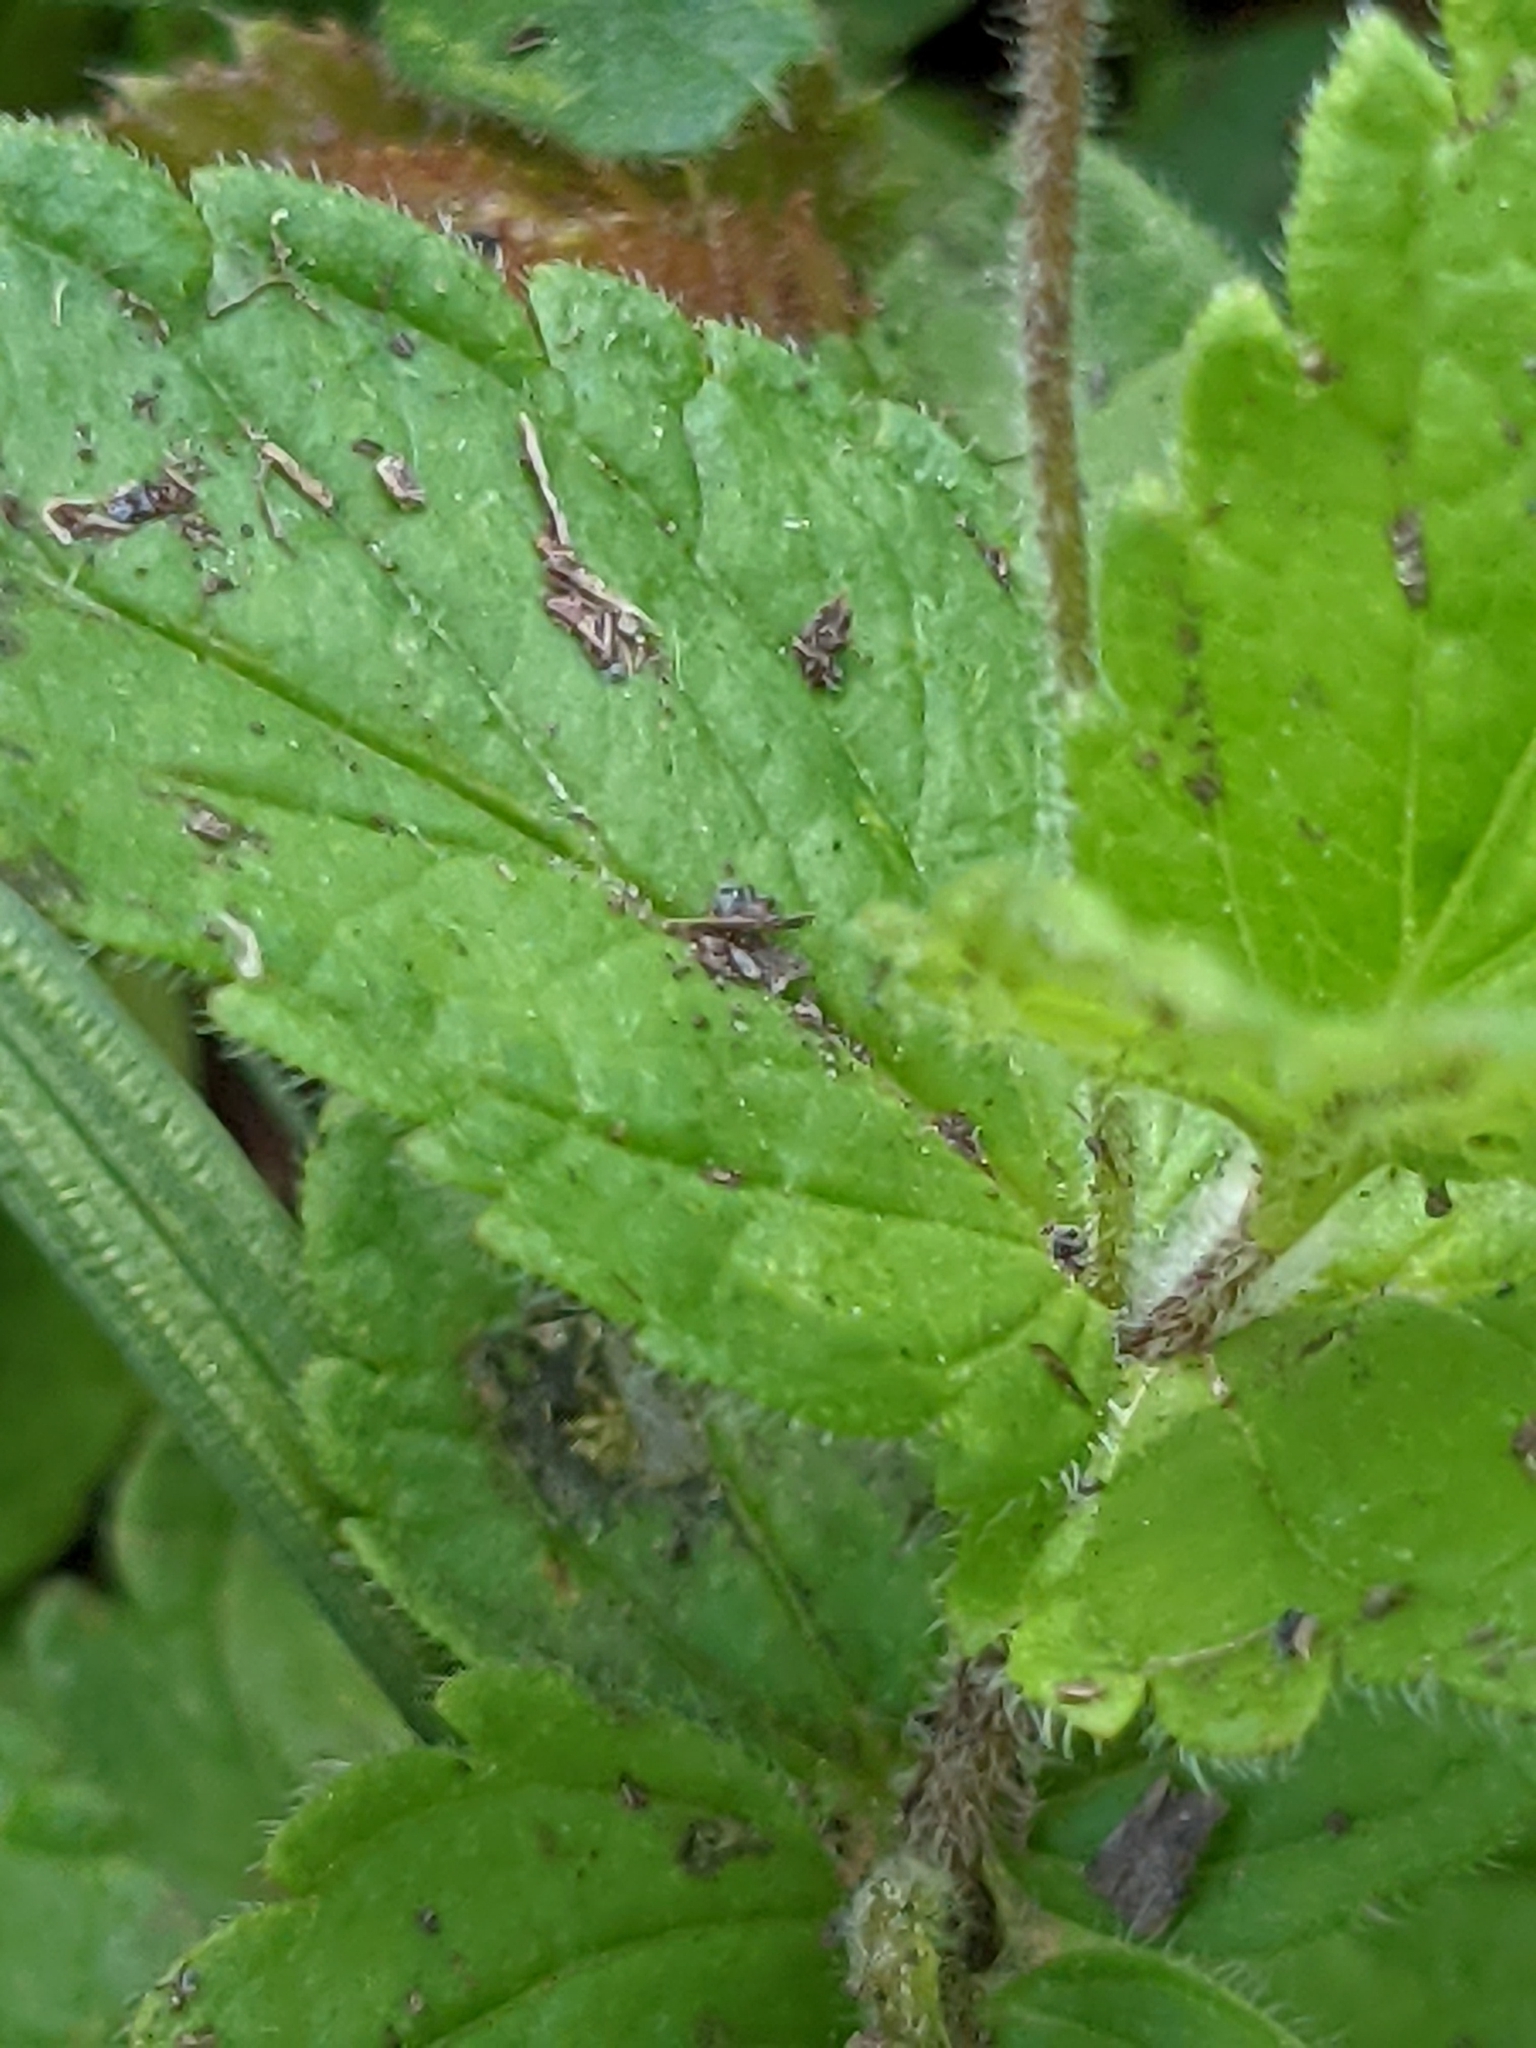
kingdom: Plantae
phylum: Tracheophyta
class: Magnoliopsida
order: Lamiales
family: Plantaginaceae
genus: Veronica
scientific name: Veronica chamaedrys
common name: Germander speedwell
